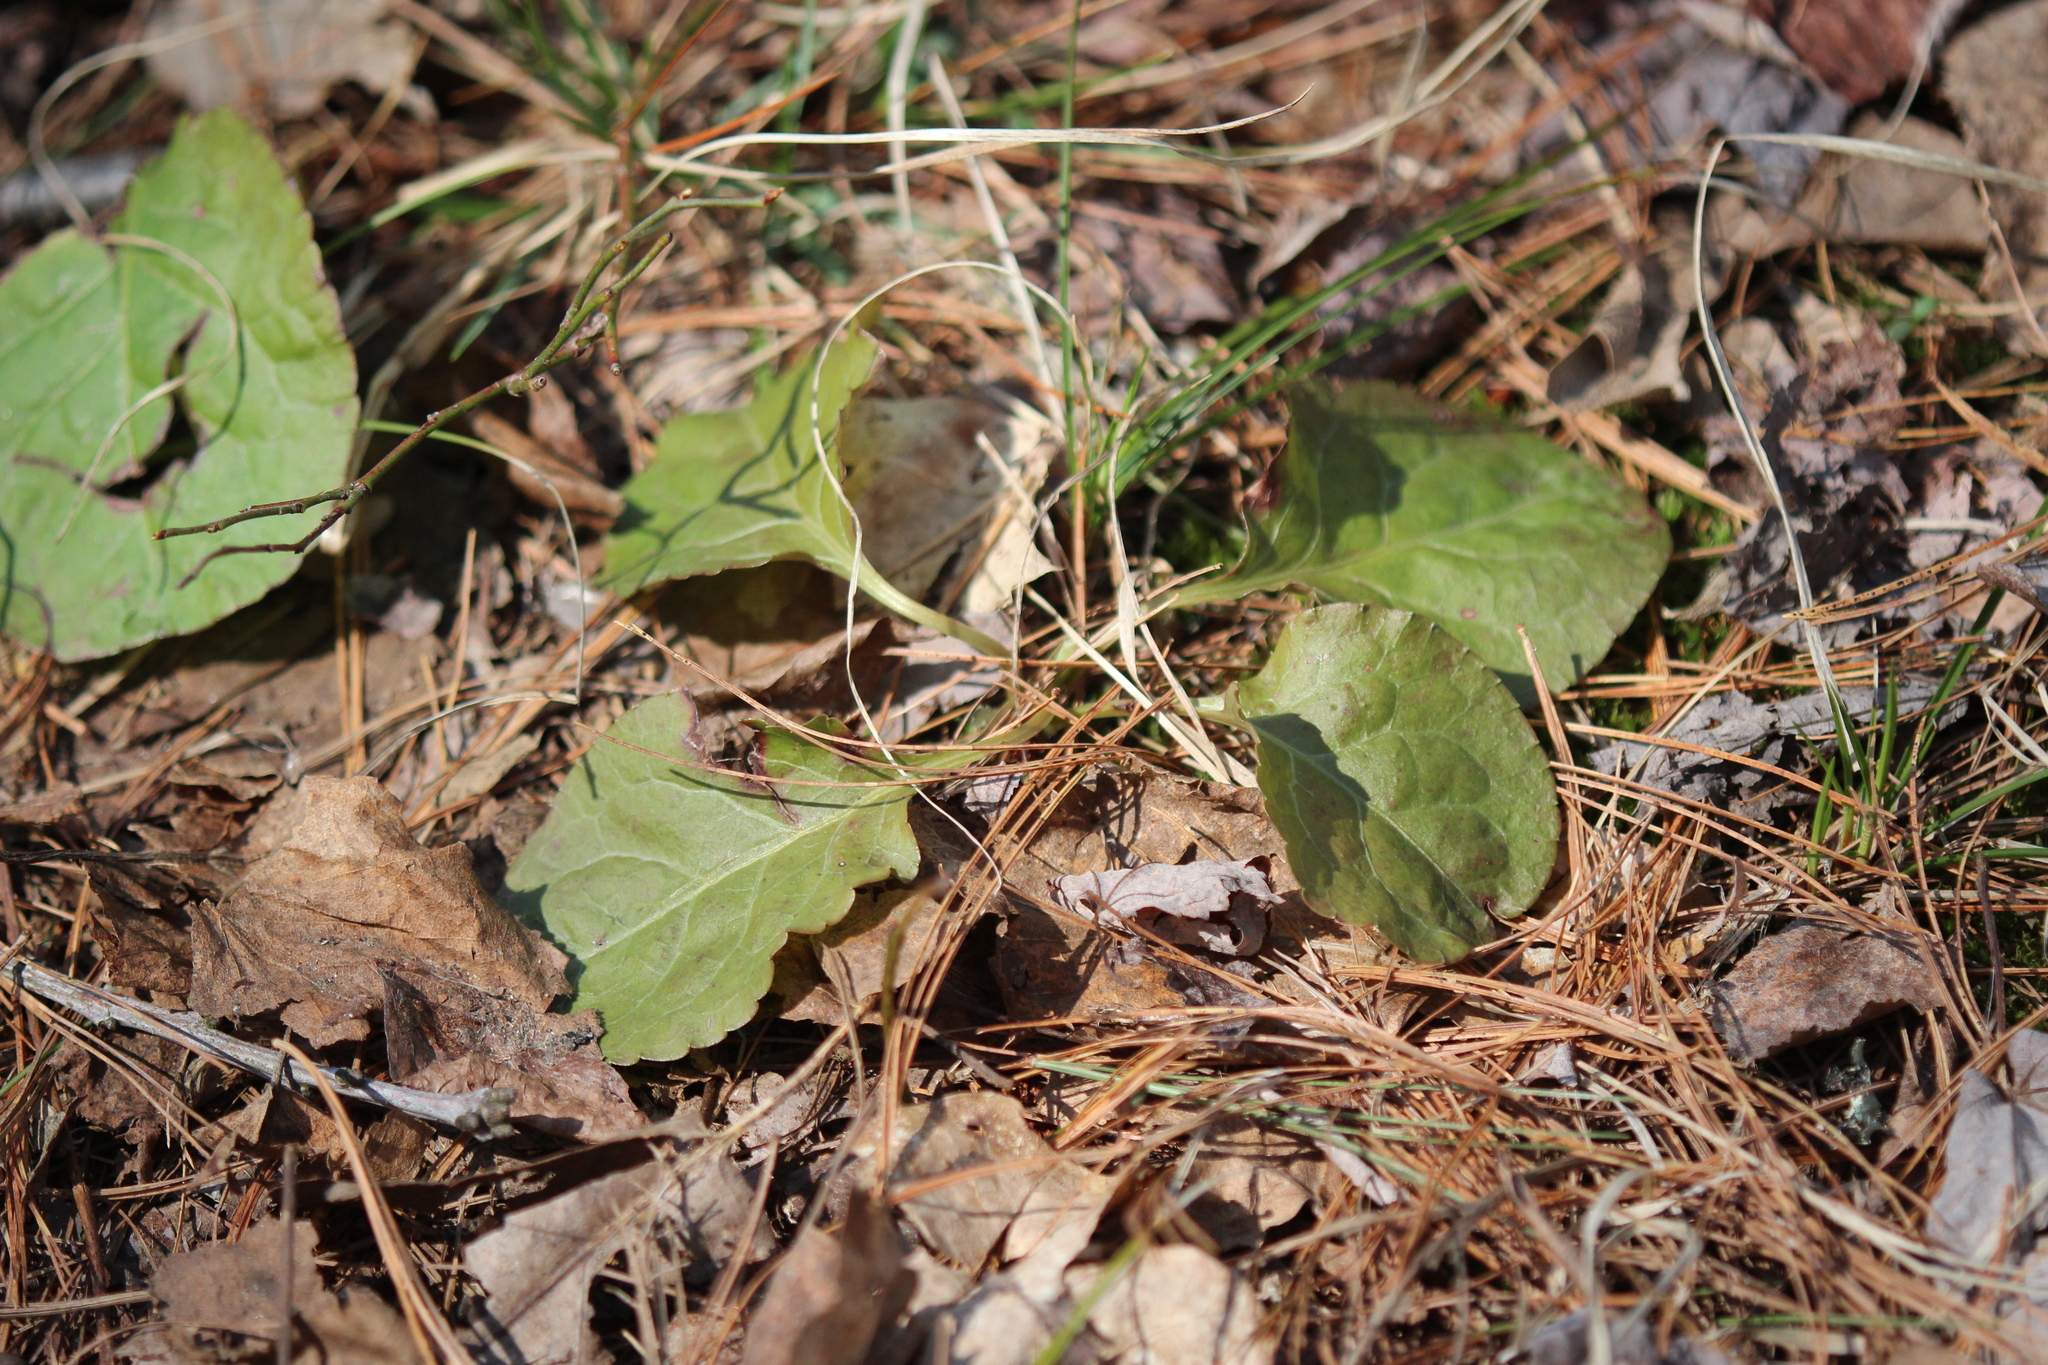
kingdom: Plantae
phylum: Tracheophyta
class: Magnoliopsida
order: Ericales
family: Ericaceae
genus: Pyrola
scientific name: Pyrola elliptica
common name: Shinleaf
